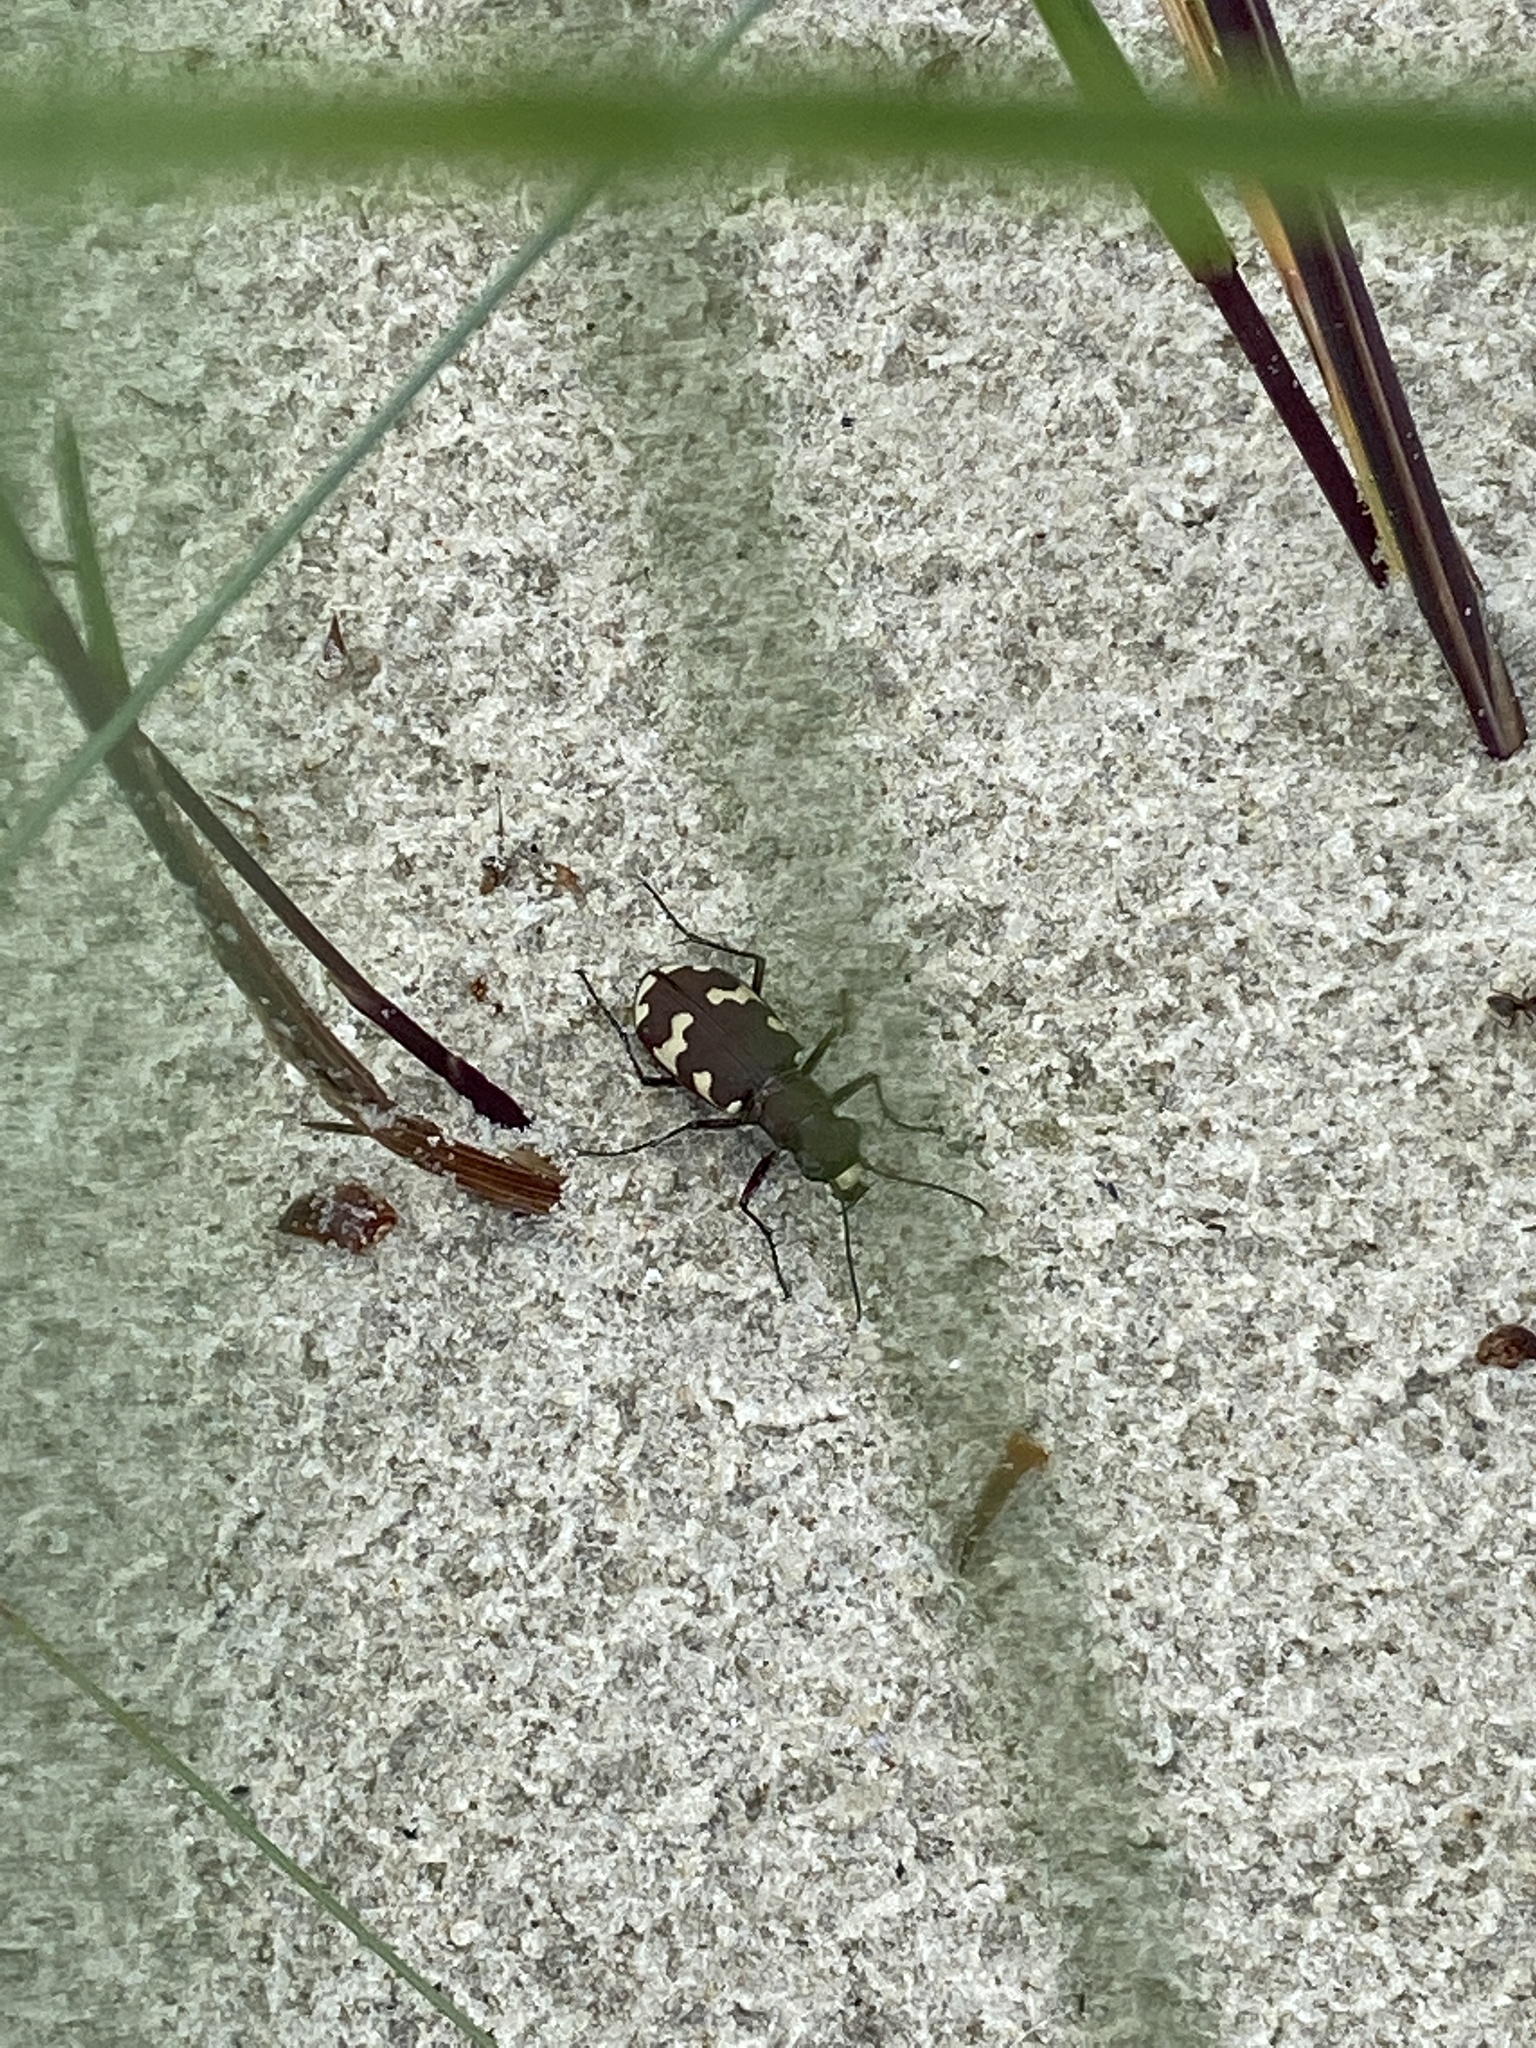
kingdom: Animalia
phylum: Arthropoda
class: Insecta
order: Coleoptera
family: Carabidae
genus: Cicindela
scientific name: Cicindela hybrida
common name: Northern dune tiger beetle
